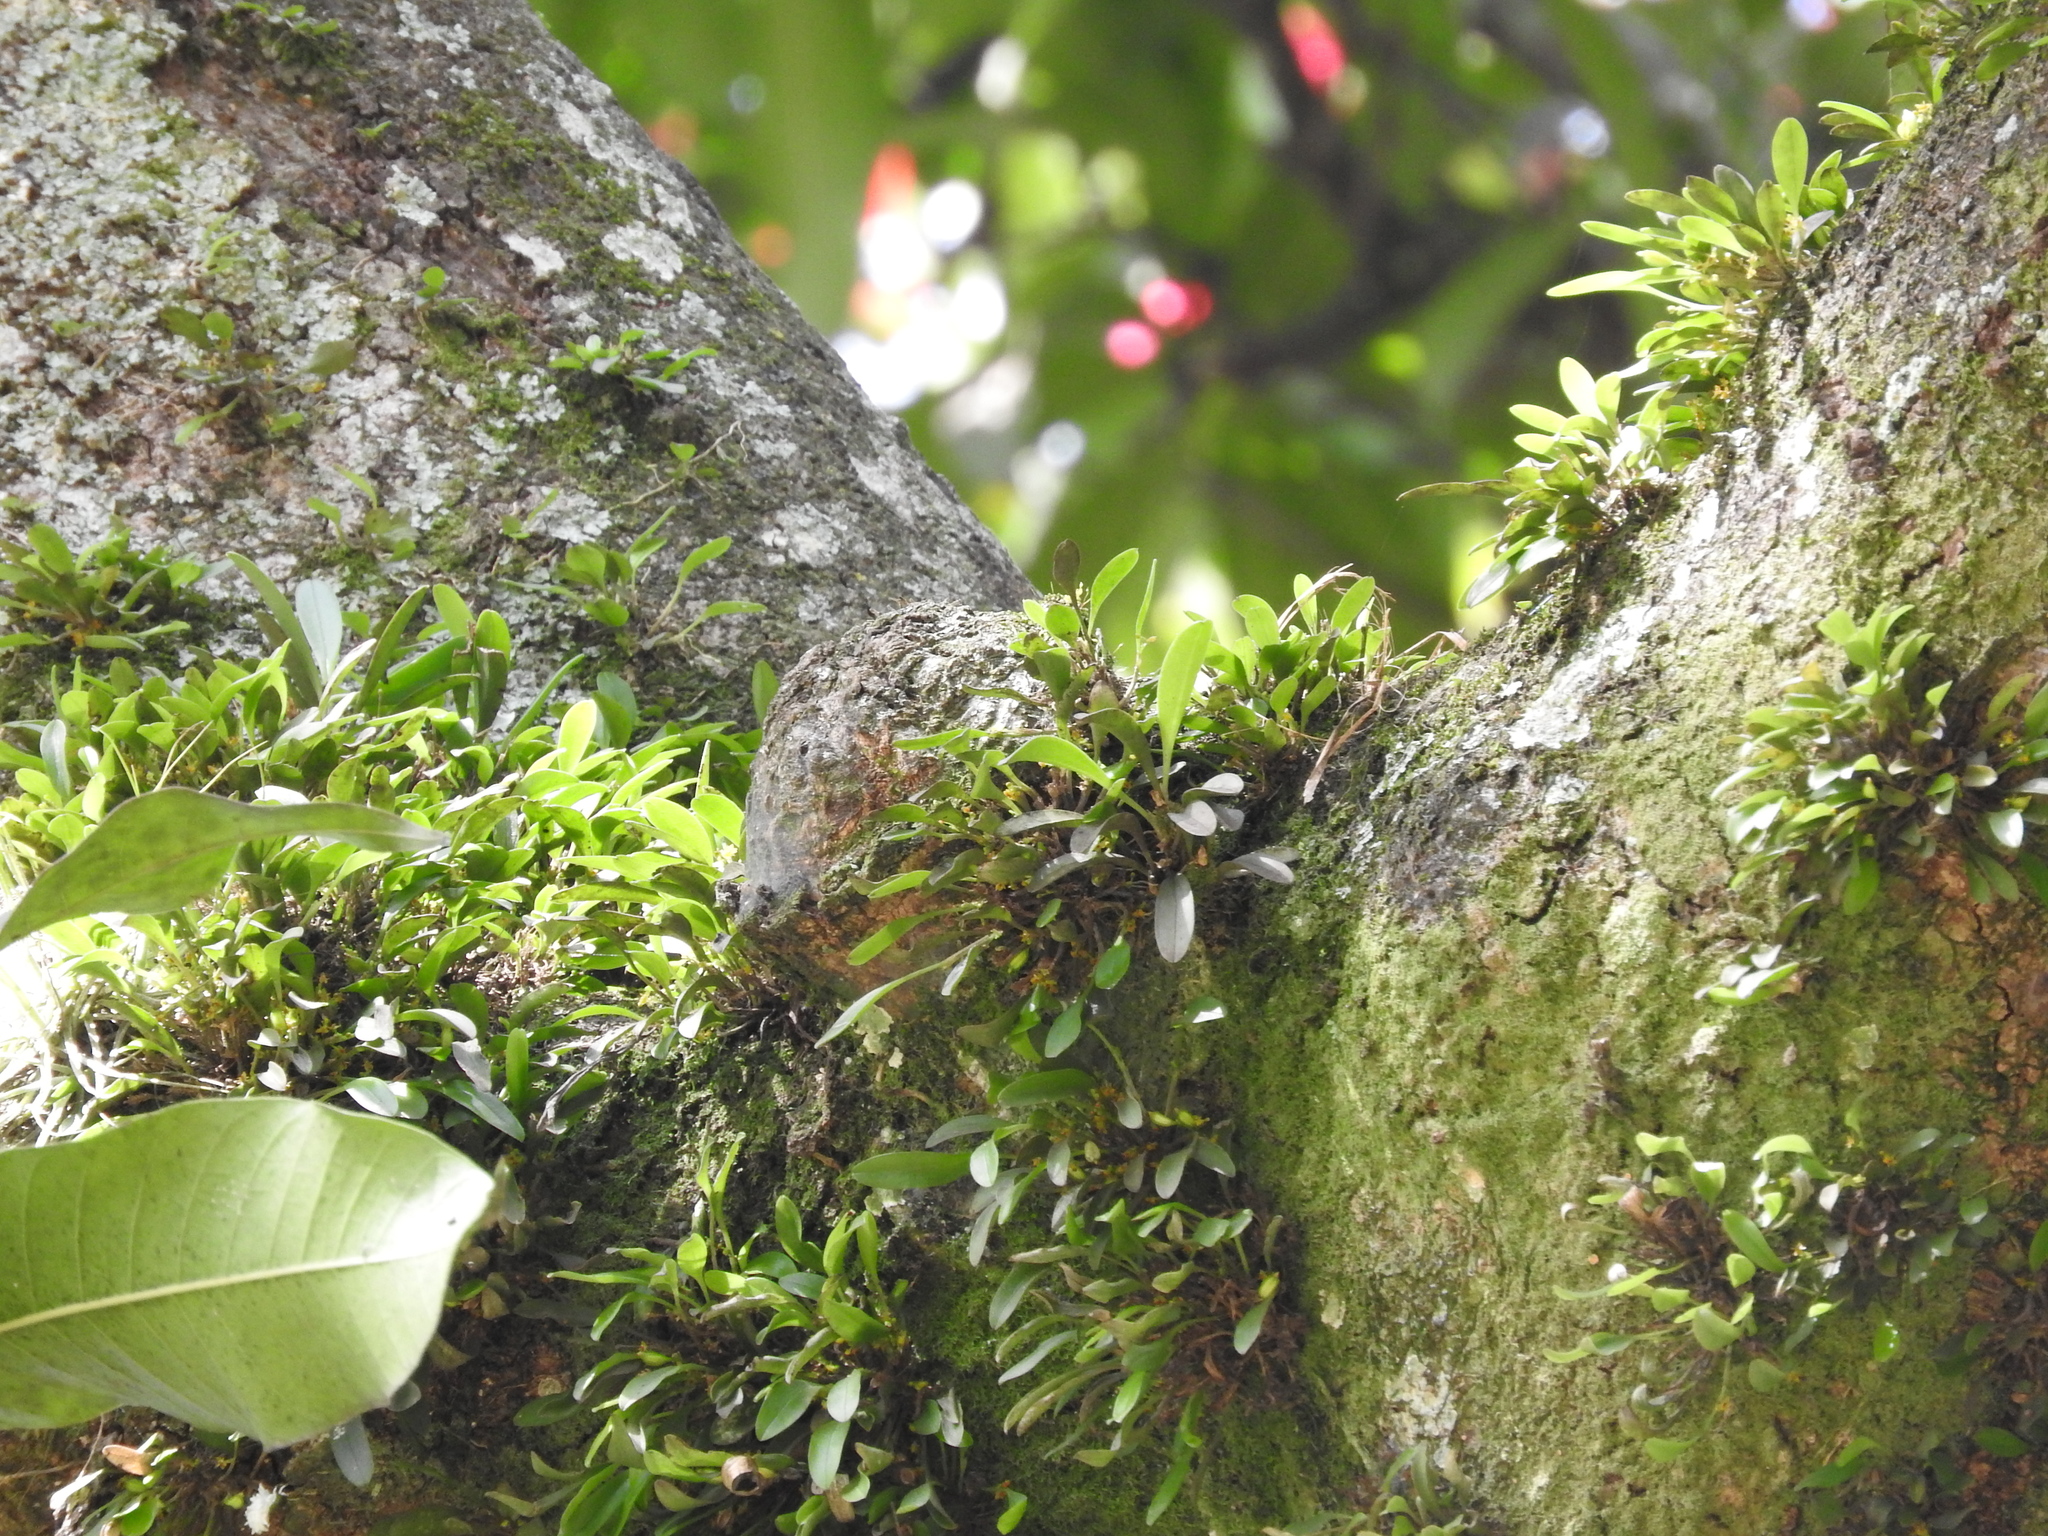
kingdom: Plantae
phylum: Tracheophyta
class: Liliopsida
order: Asparagales
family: Orchidaceae
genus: Platystele
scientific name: Platystele stenostachya
